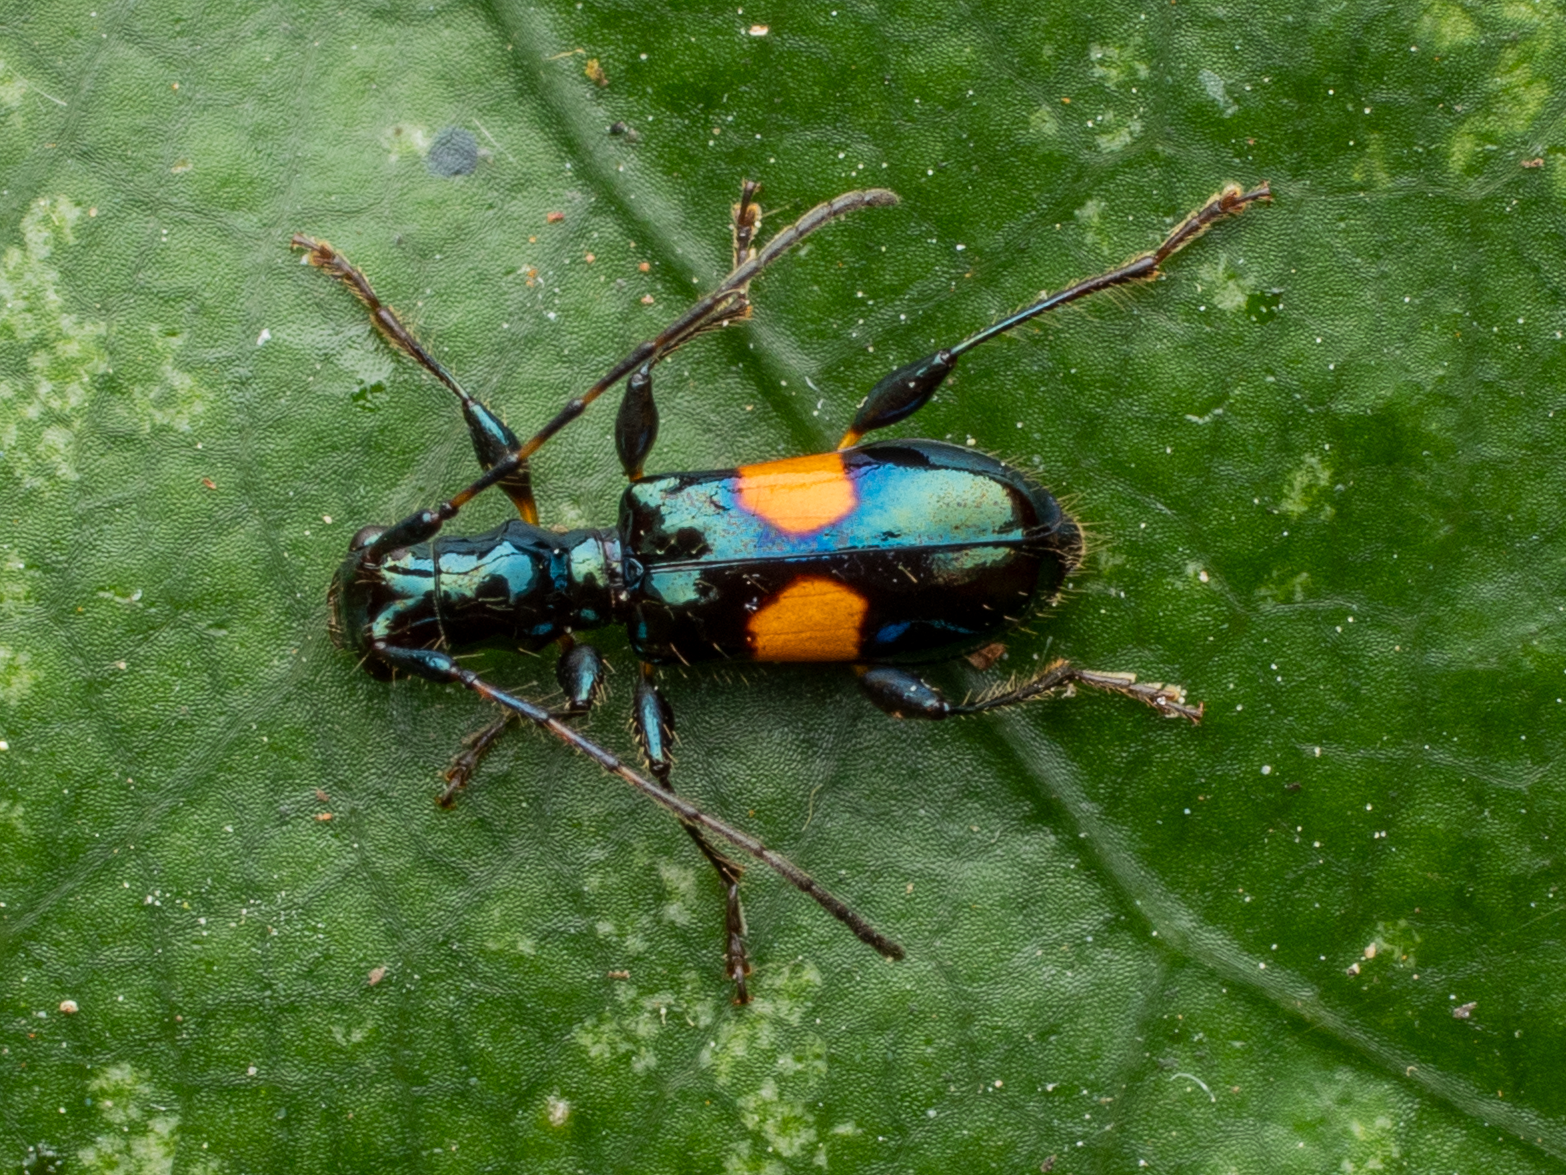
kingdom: Animalia
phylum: Arthropoda
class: Insecta
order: Coleoptera
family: Cerambycidae
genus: Zorion
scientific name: Zorion guttigerum
